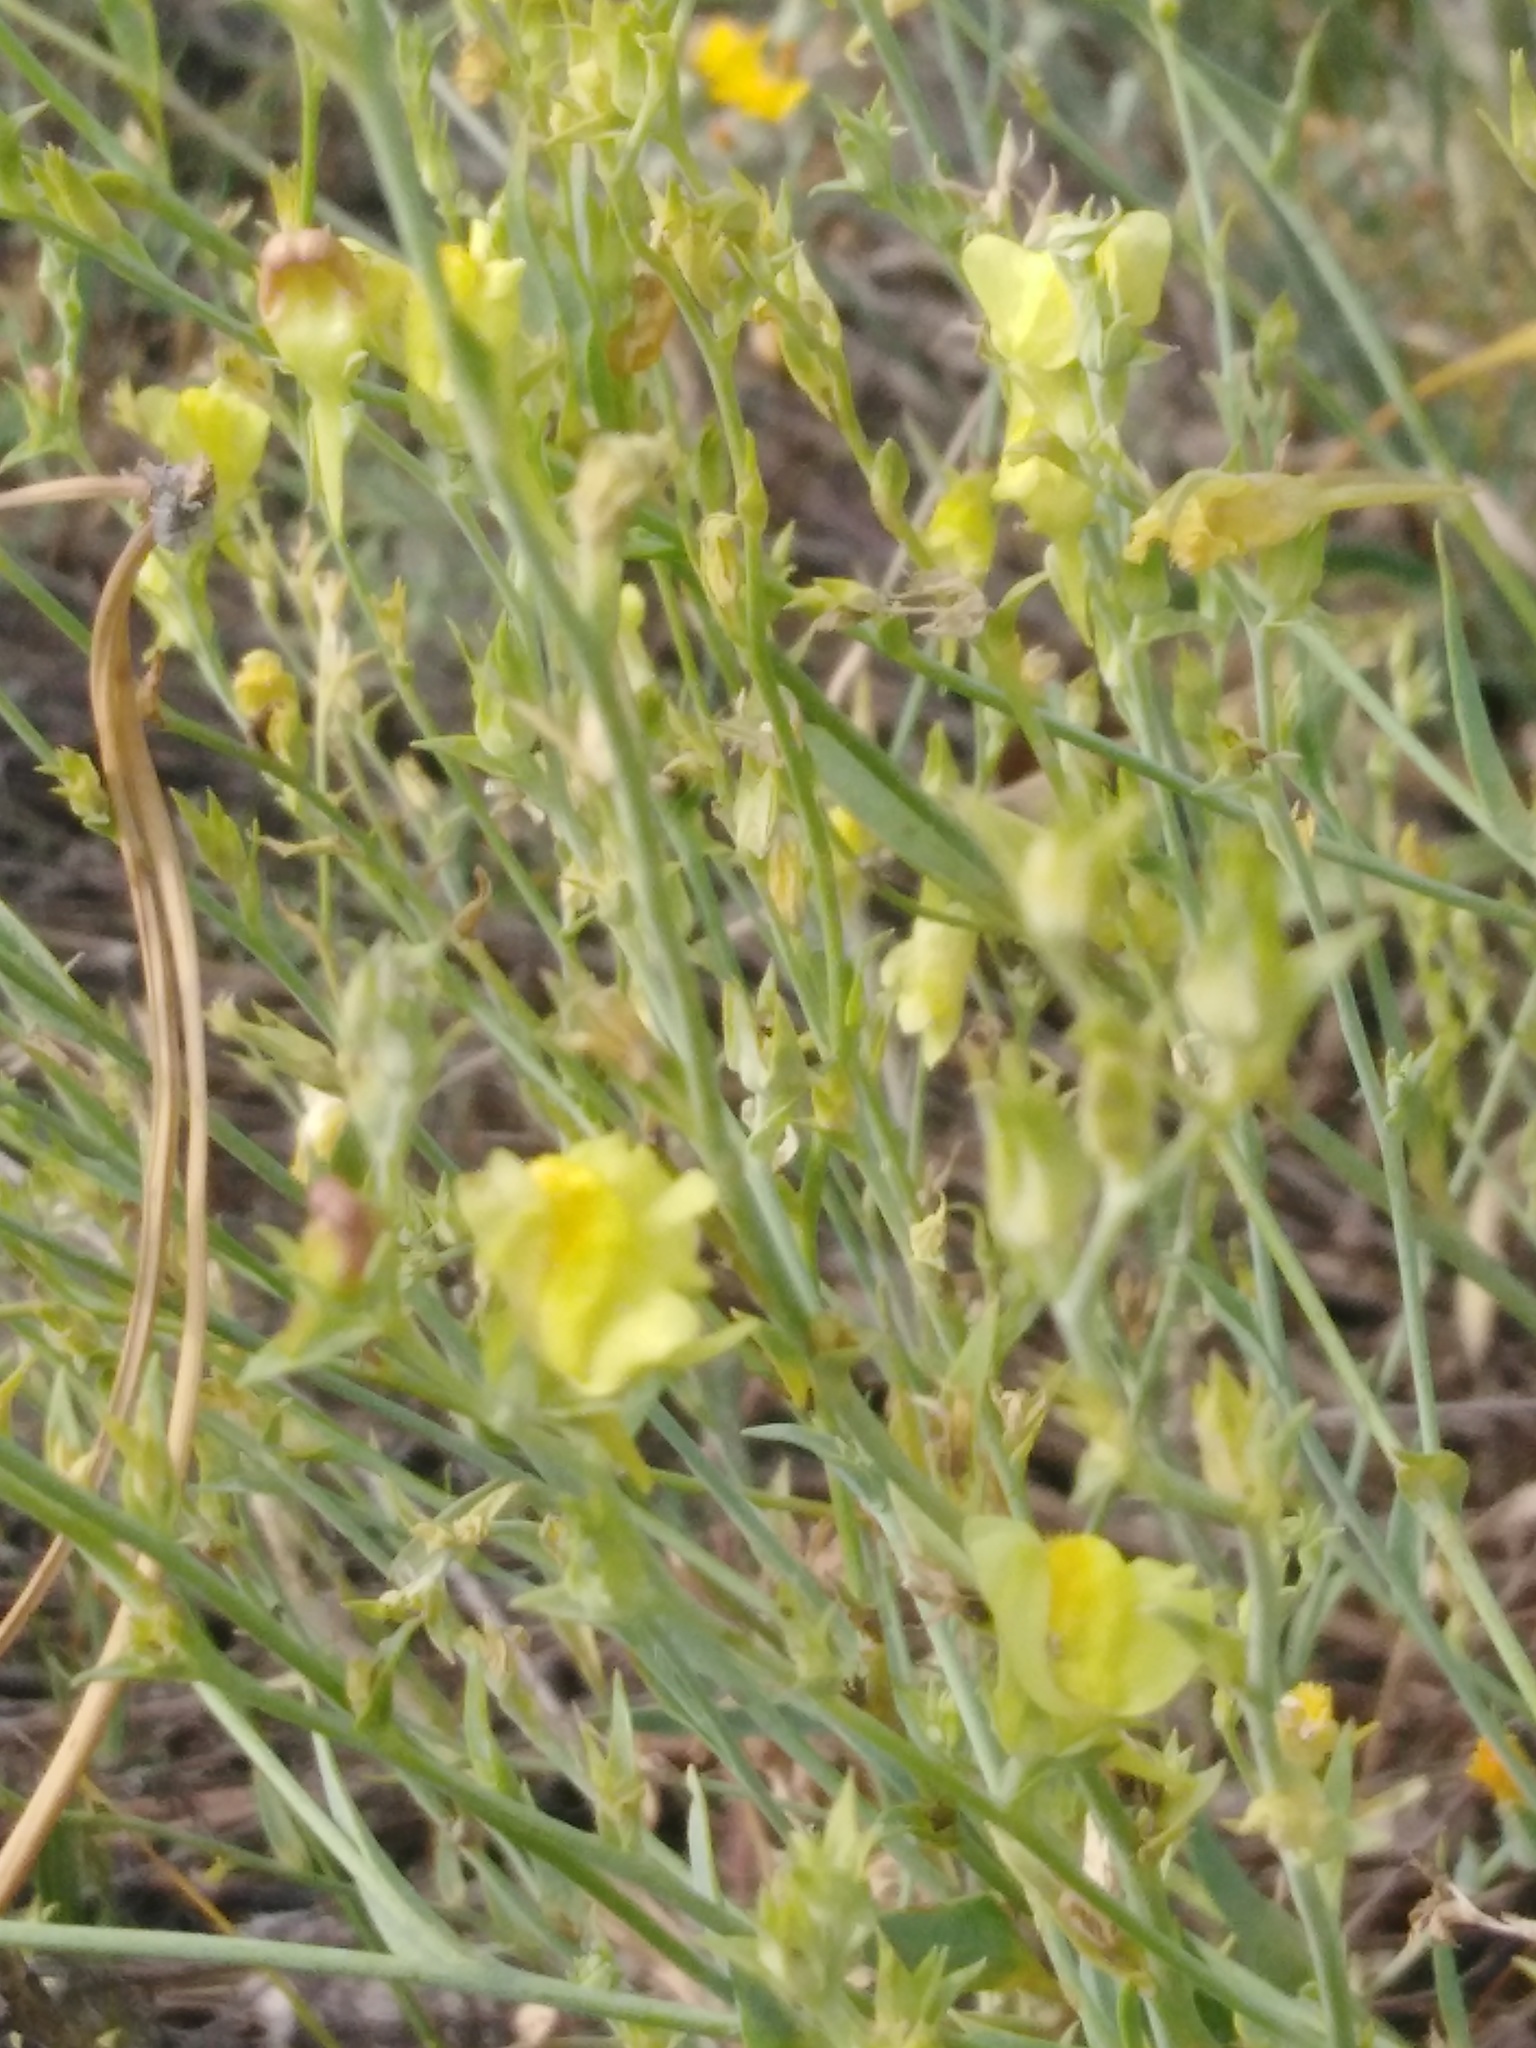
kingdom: Plantae
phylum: Tracheophyta
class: Magnoliopsida
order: Lamiales
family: Plantaginaceae
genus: Linaria
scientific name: Linaria genistifolia
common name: Broomleaf toadflax
